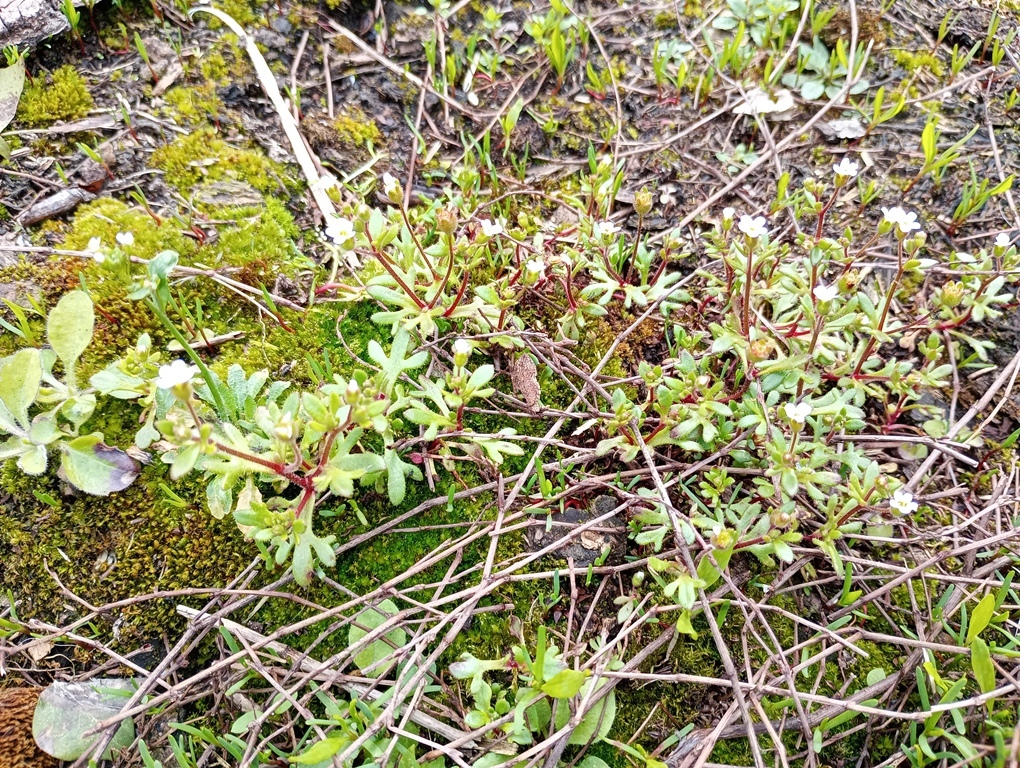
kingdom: Plantae
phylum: Tracheophyta
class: Magnoliopsida
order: Saxifragales
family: Saxifragaceae
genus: Saxifraga
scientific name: Saxifraga tridactylites
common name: Rue-leaved saxifrage
